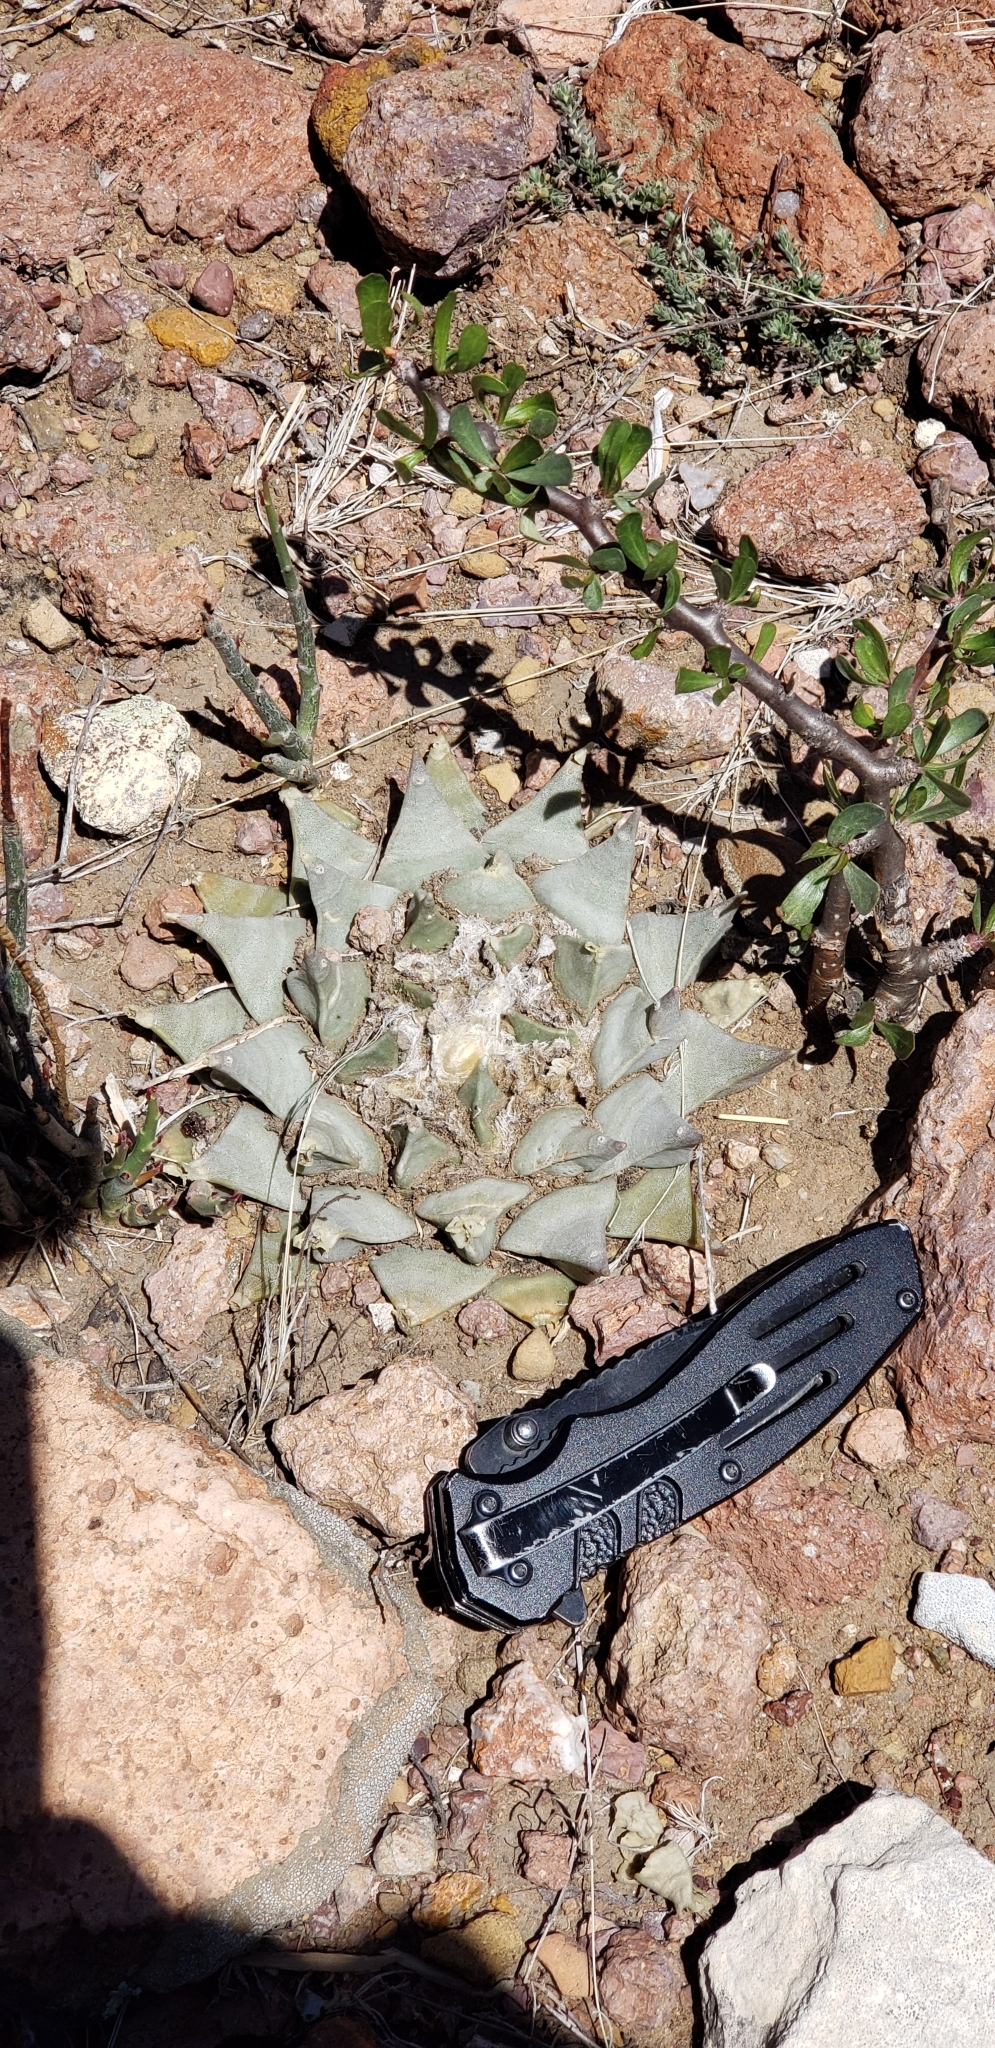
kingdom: Plantae
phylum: Tracheophyta
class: Magnoliopsida
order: Caryophyllales
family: Cactaceae
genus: Ariocarpus
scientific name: Ariocarpus retusus
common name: Seven stars
